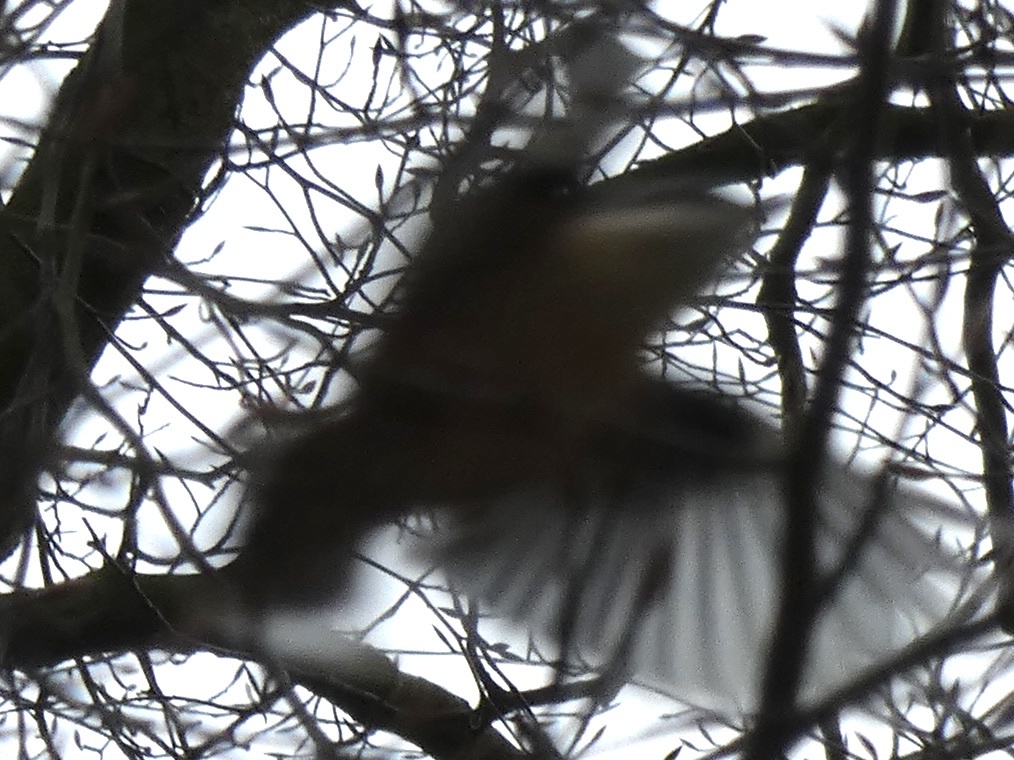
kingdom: Animalia
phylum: Chordata
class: Aves
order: Passeriformes
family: Sittidae
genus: Sitta
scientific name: Sitta europaea
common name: Eurasian nuthatch
